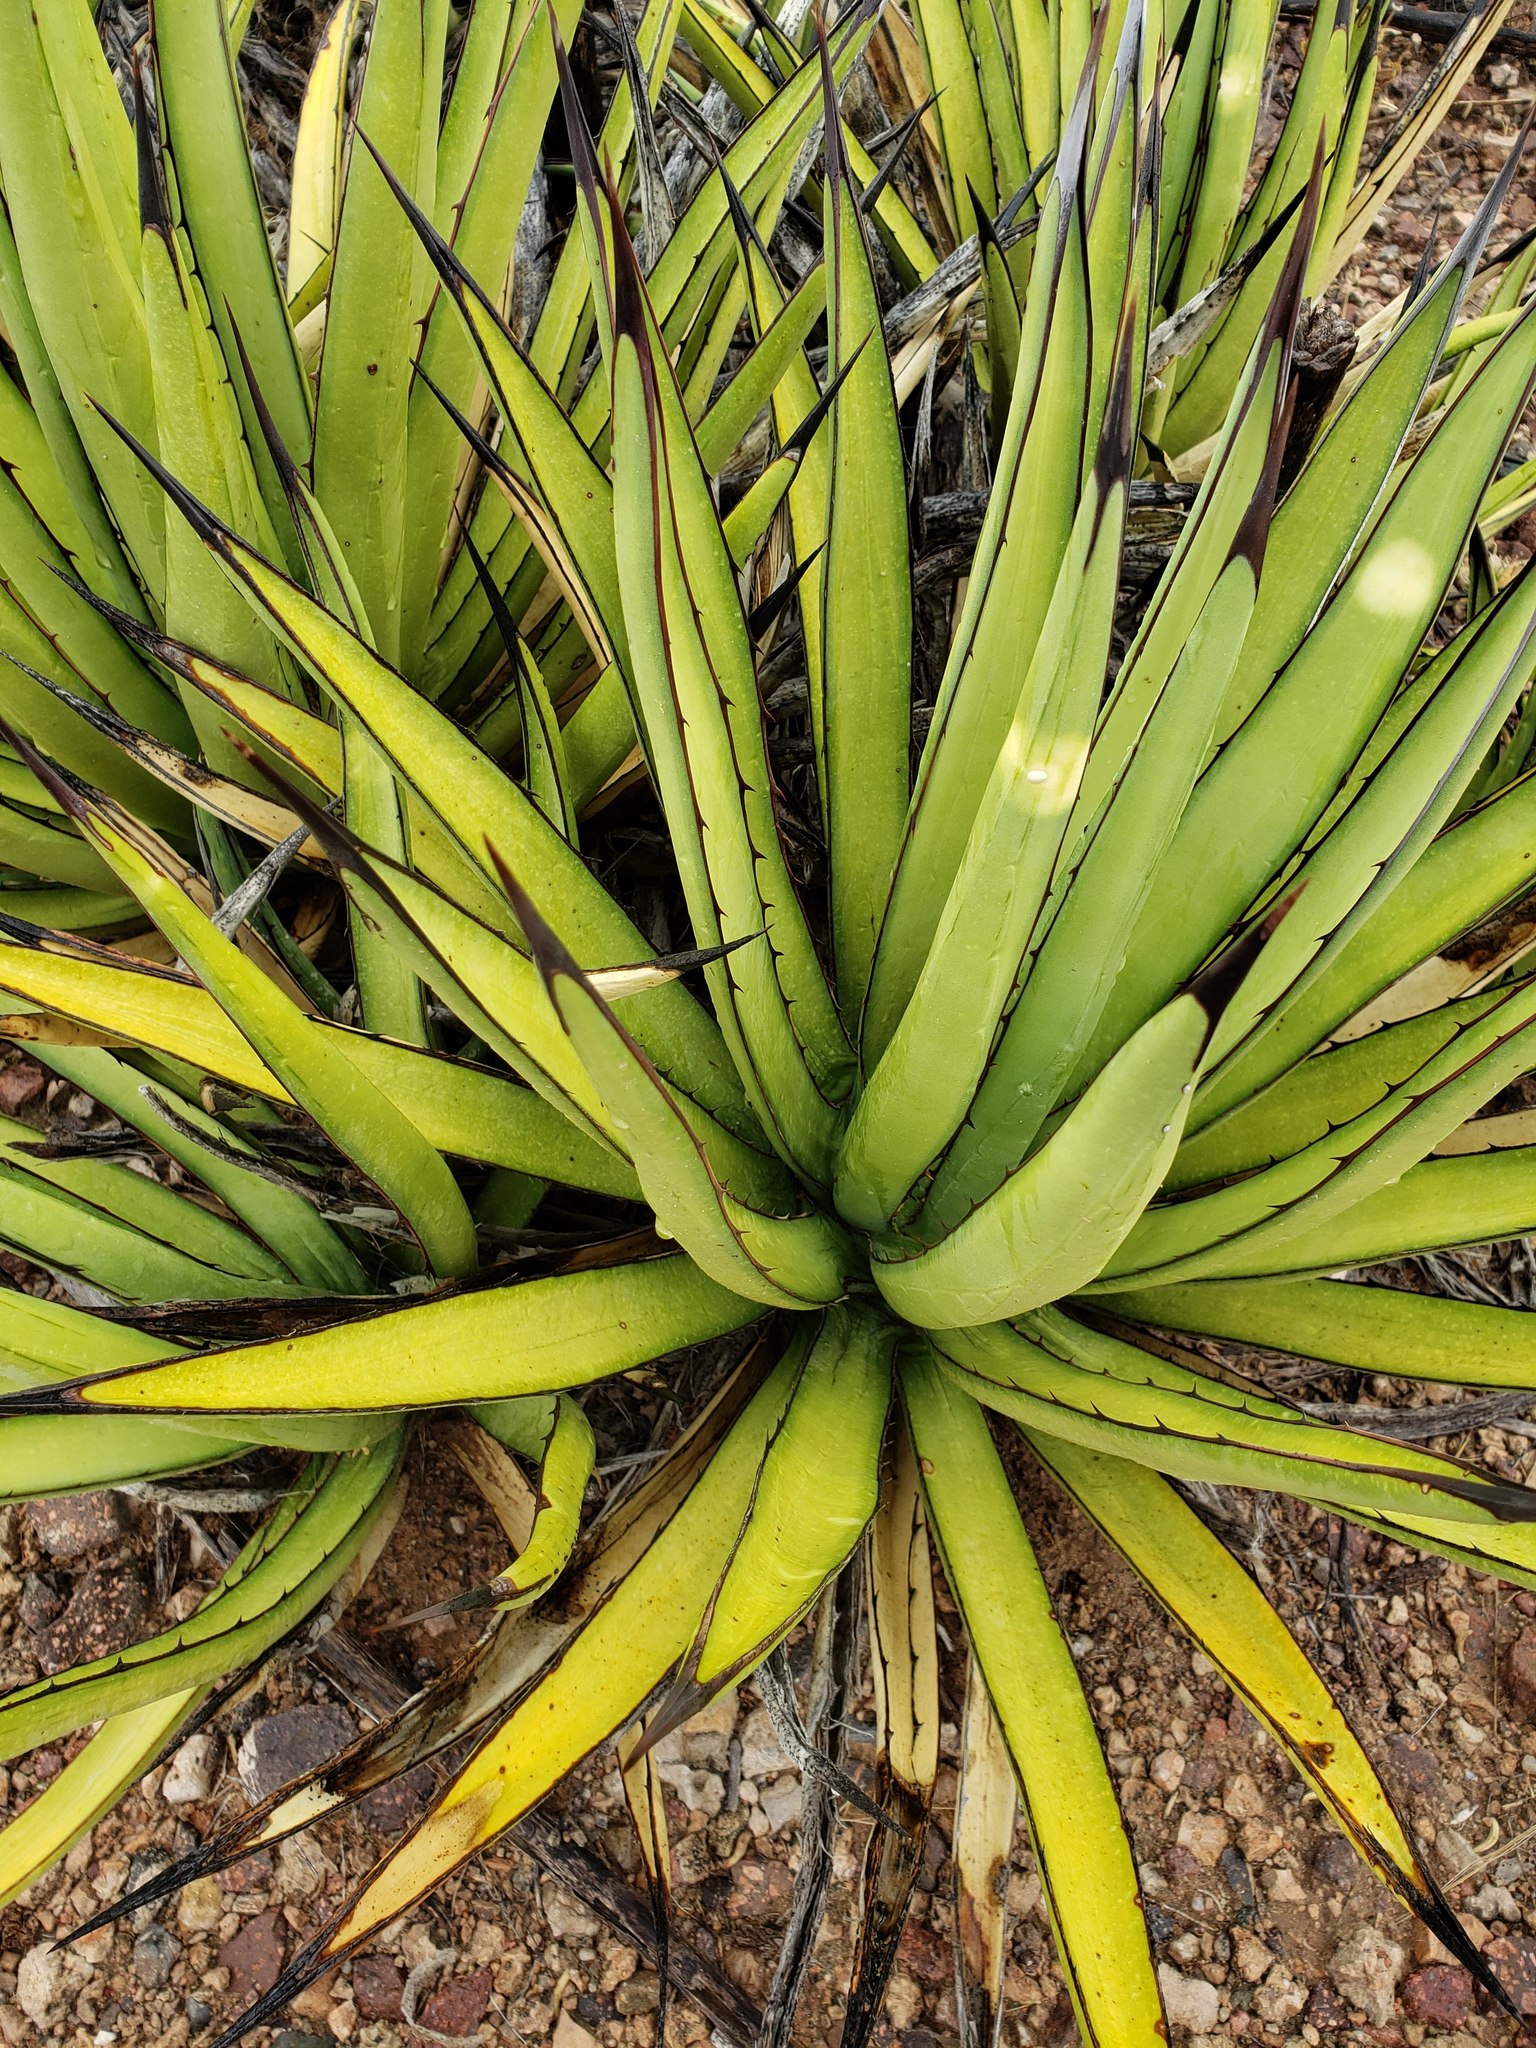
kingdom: Plantae
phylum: Tracheophyta
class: Liliopsida
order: Asparagales
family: Asparagaceae
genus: Agave
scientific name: Agave lechuguilla
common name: Lecheguilla agave
